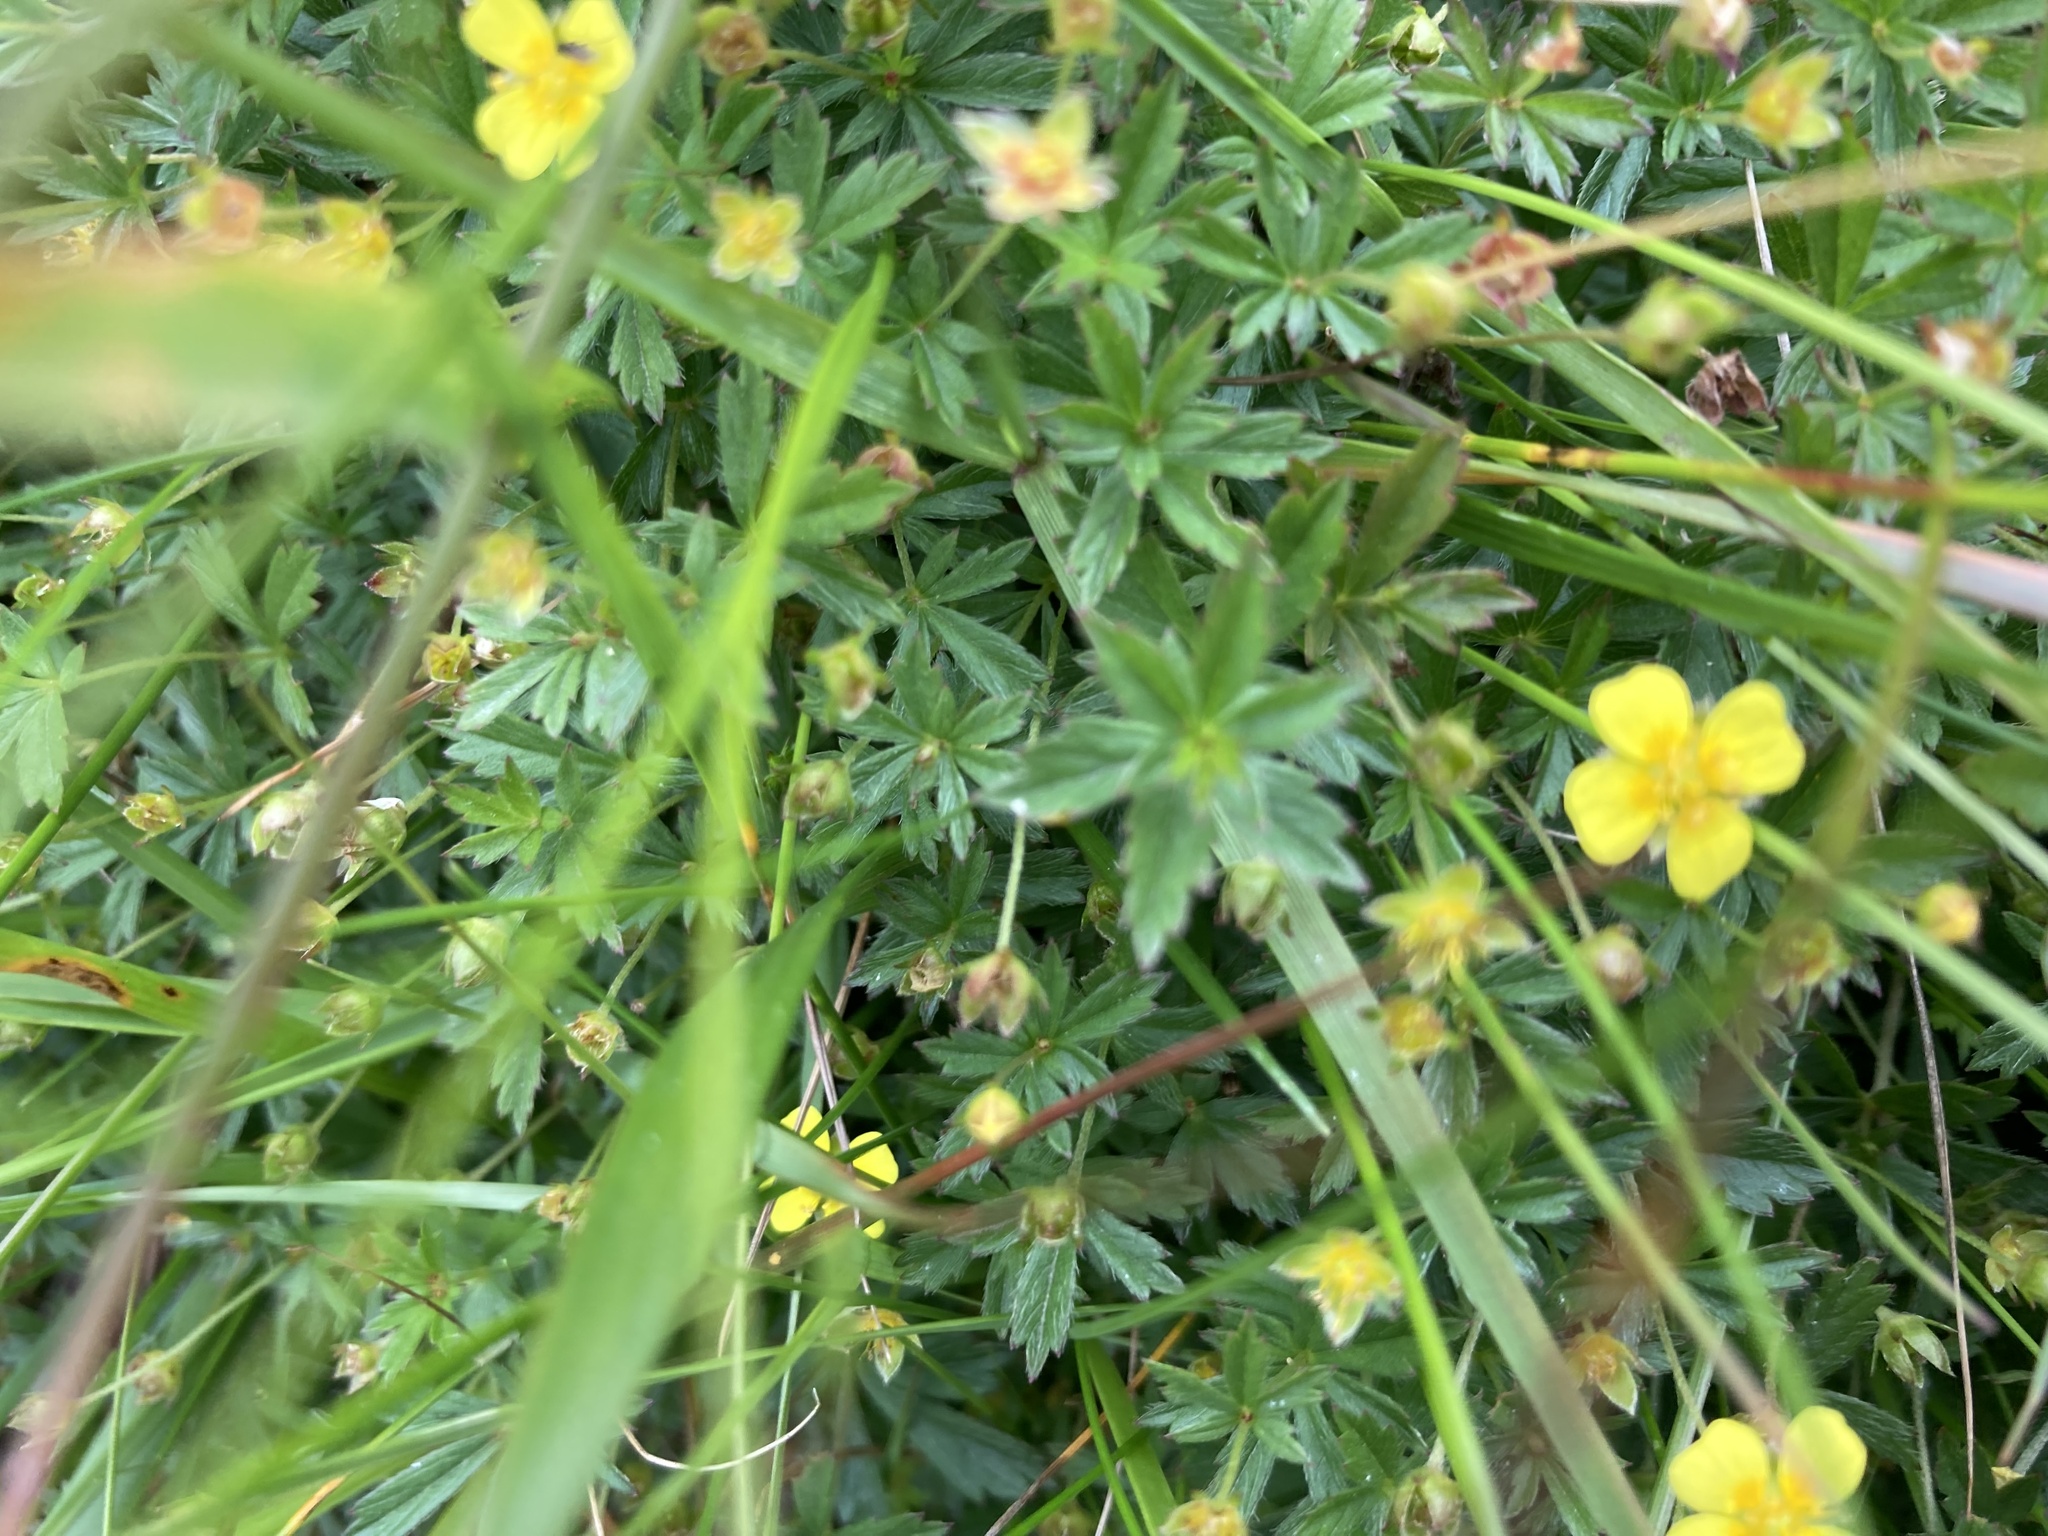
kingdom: Plantae
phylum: Tracheophyta
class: Magnoliopsida
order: Rosales
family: Rosaceae
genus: Potentilla
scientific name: Potentilla erecta
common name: Tormentil
